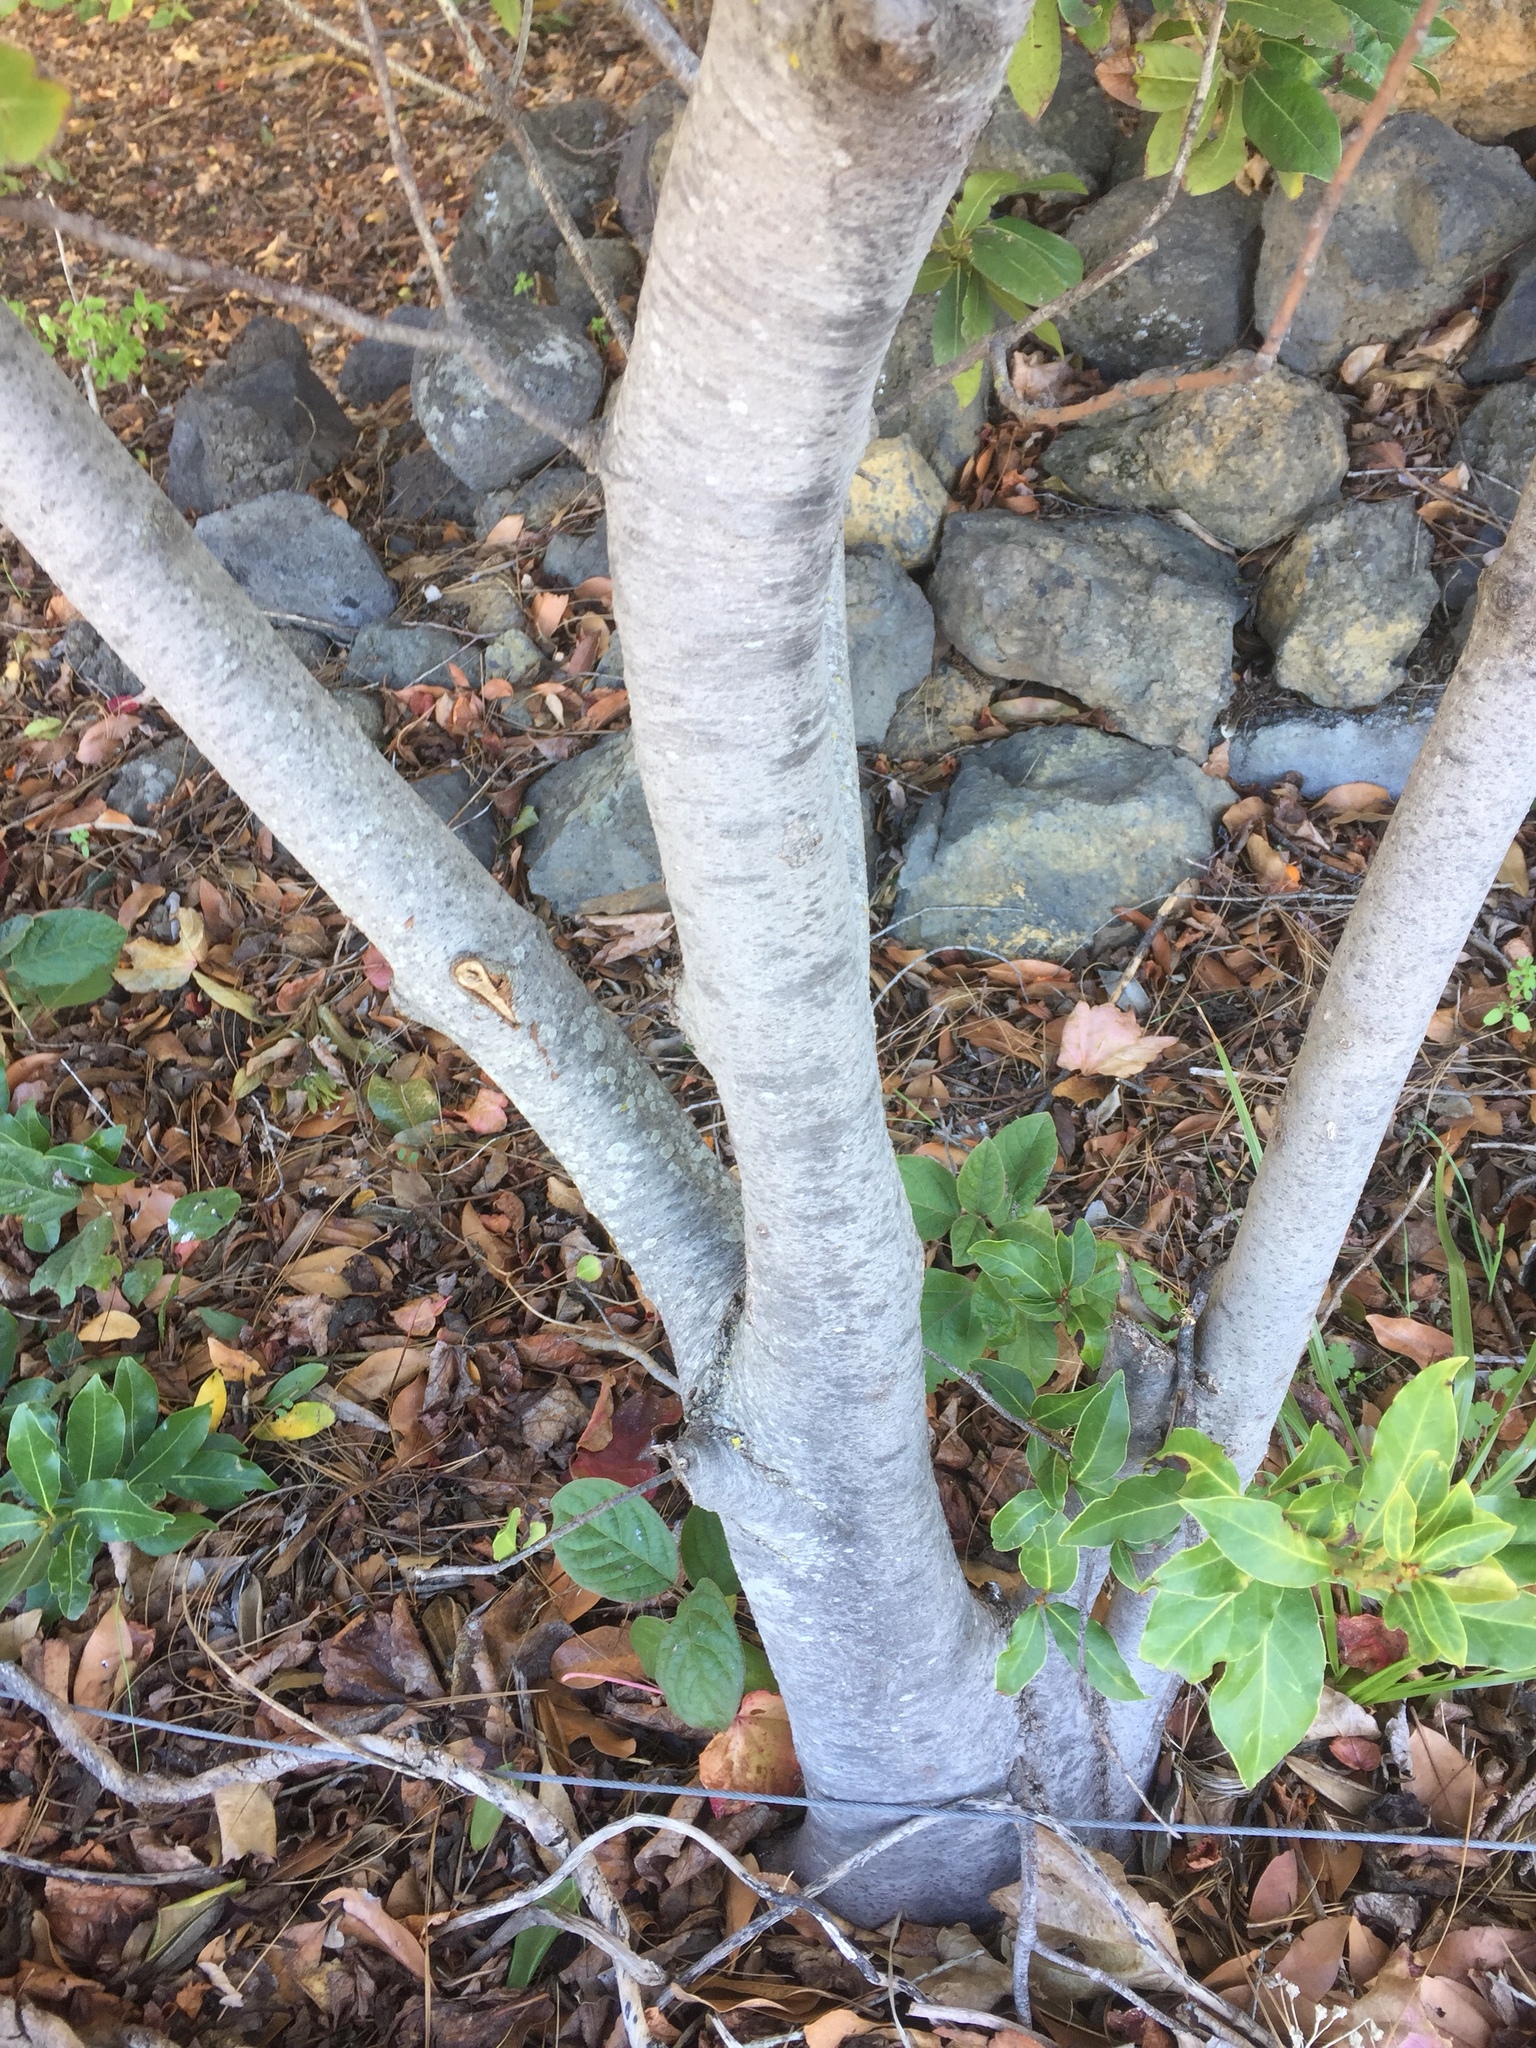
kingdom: Plantae
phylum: Tracheophyta
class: Magnoliopsida
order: Laurales
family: Lauraceae
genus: Laurus
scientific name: Laurus novocanariensis
